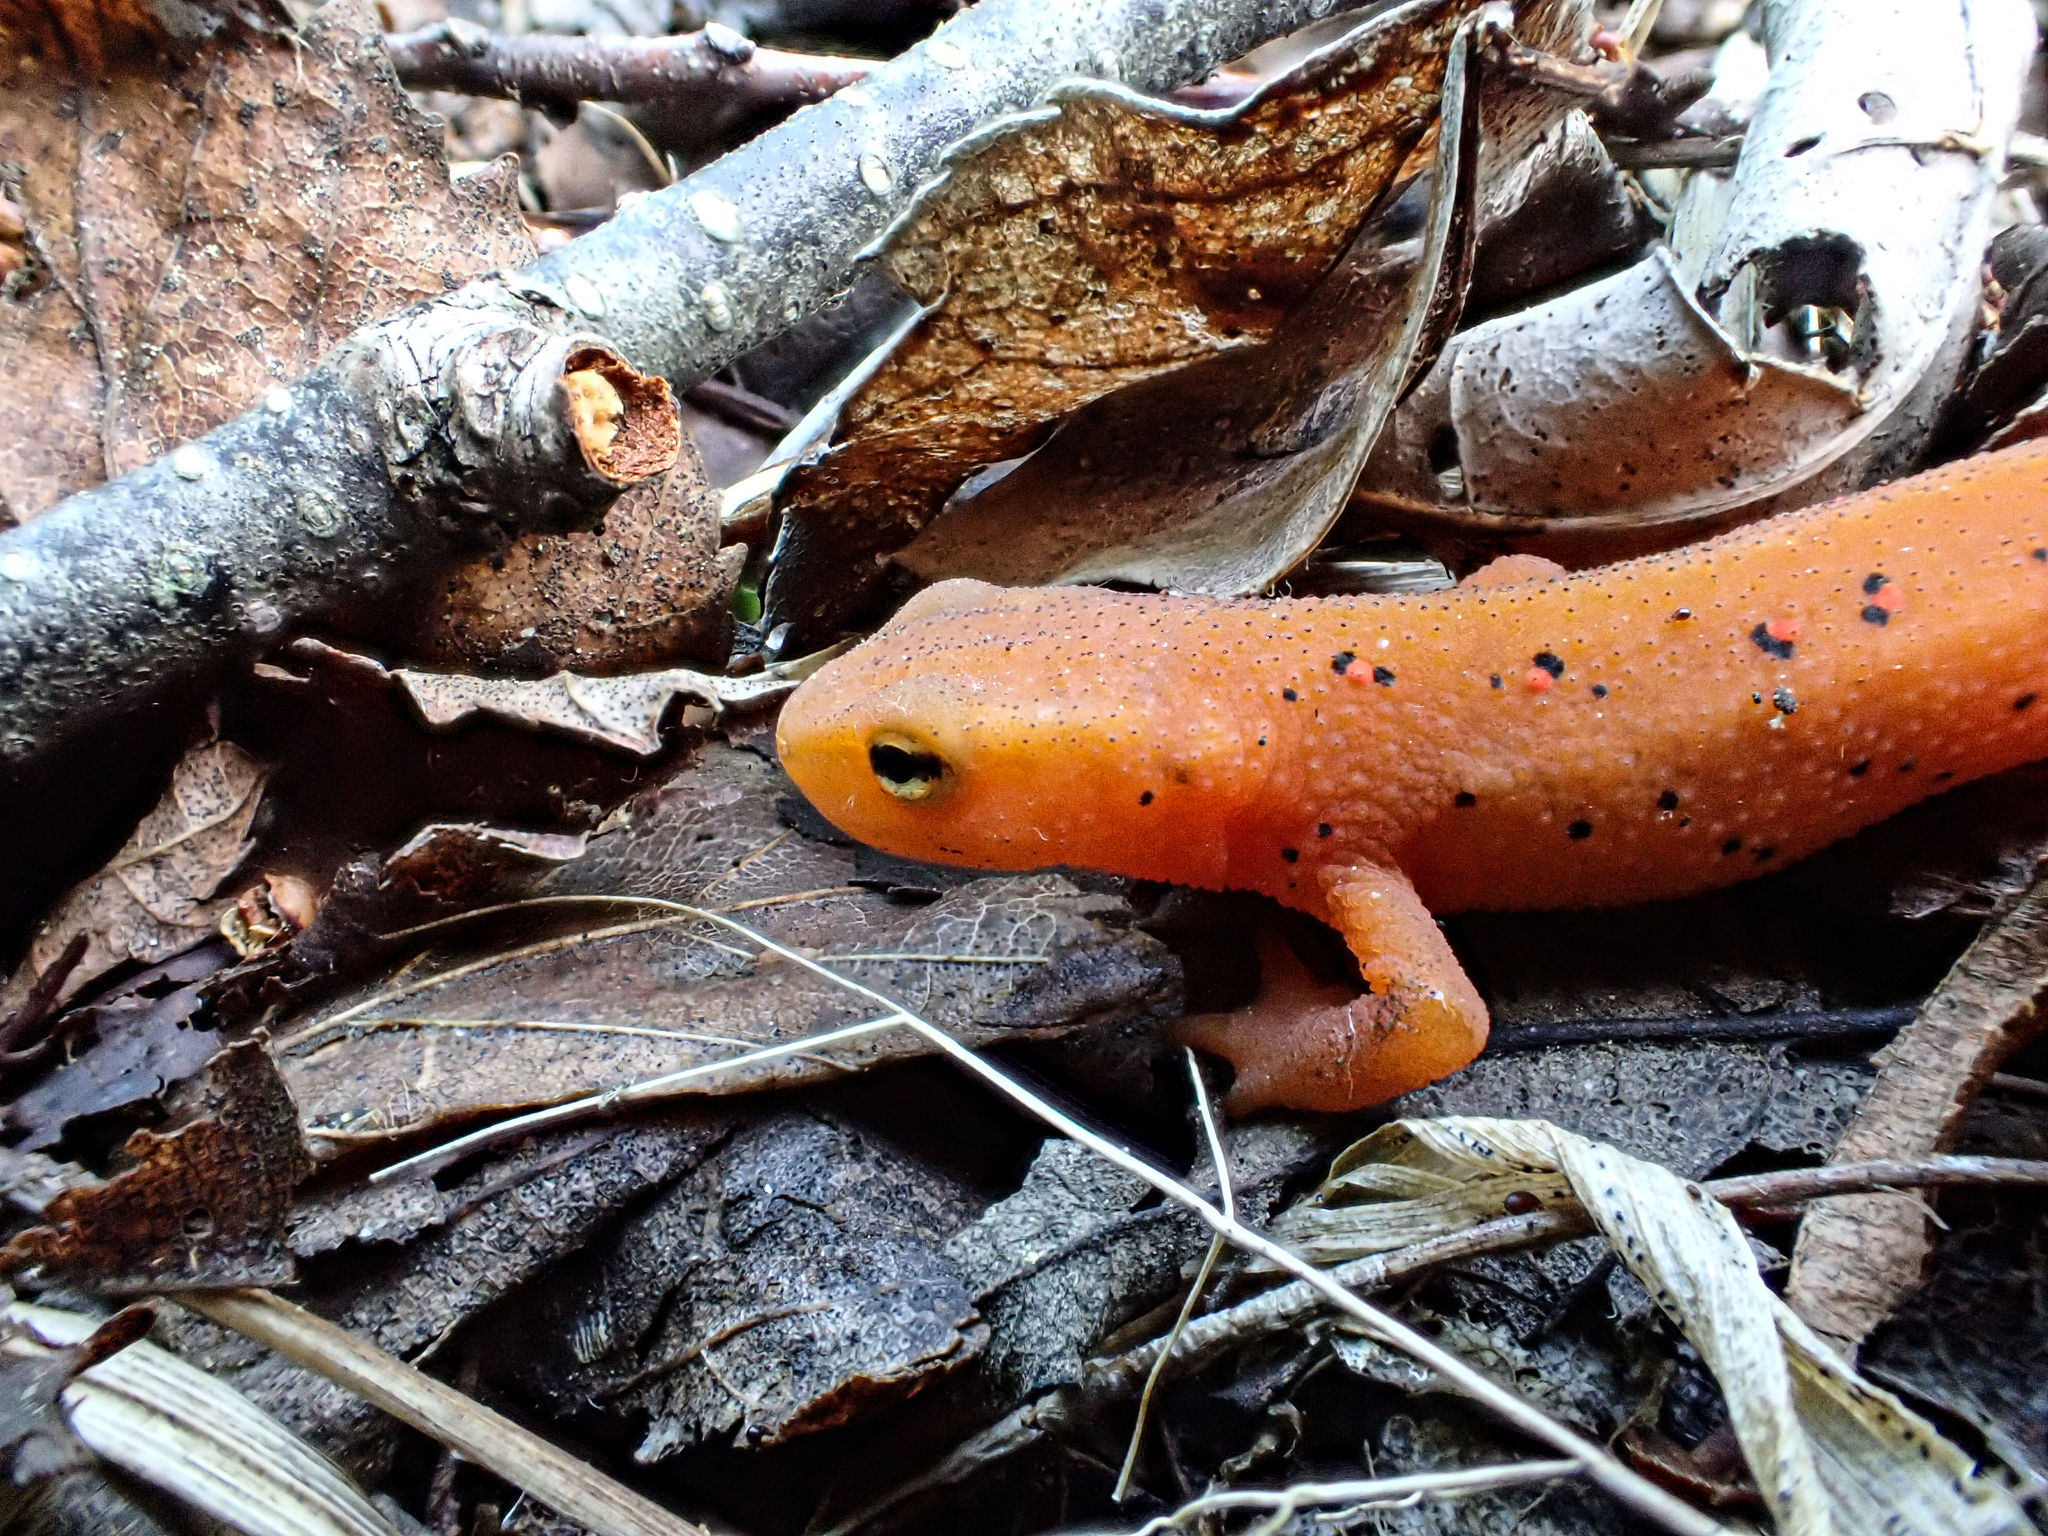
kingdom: Animalia
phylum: Chordata
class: Amphibia
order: Caudata
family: Salamandridae
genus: Notophthalmus
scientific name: Notophthalmus viridescens
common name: Eastern newt
